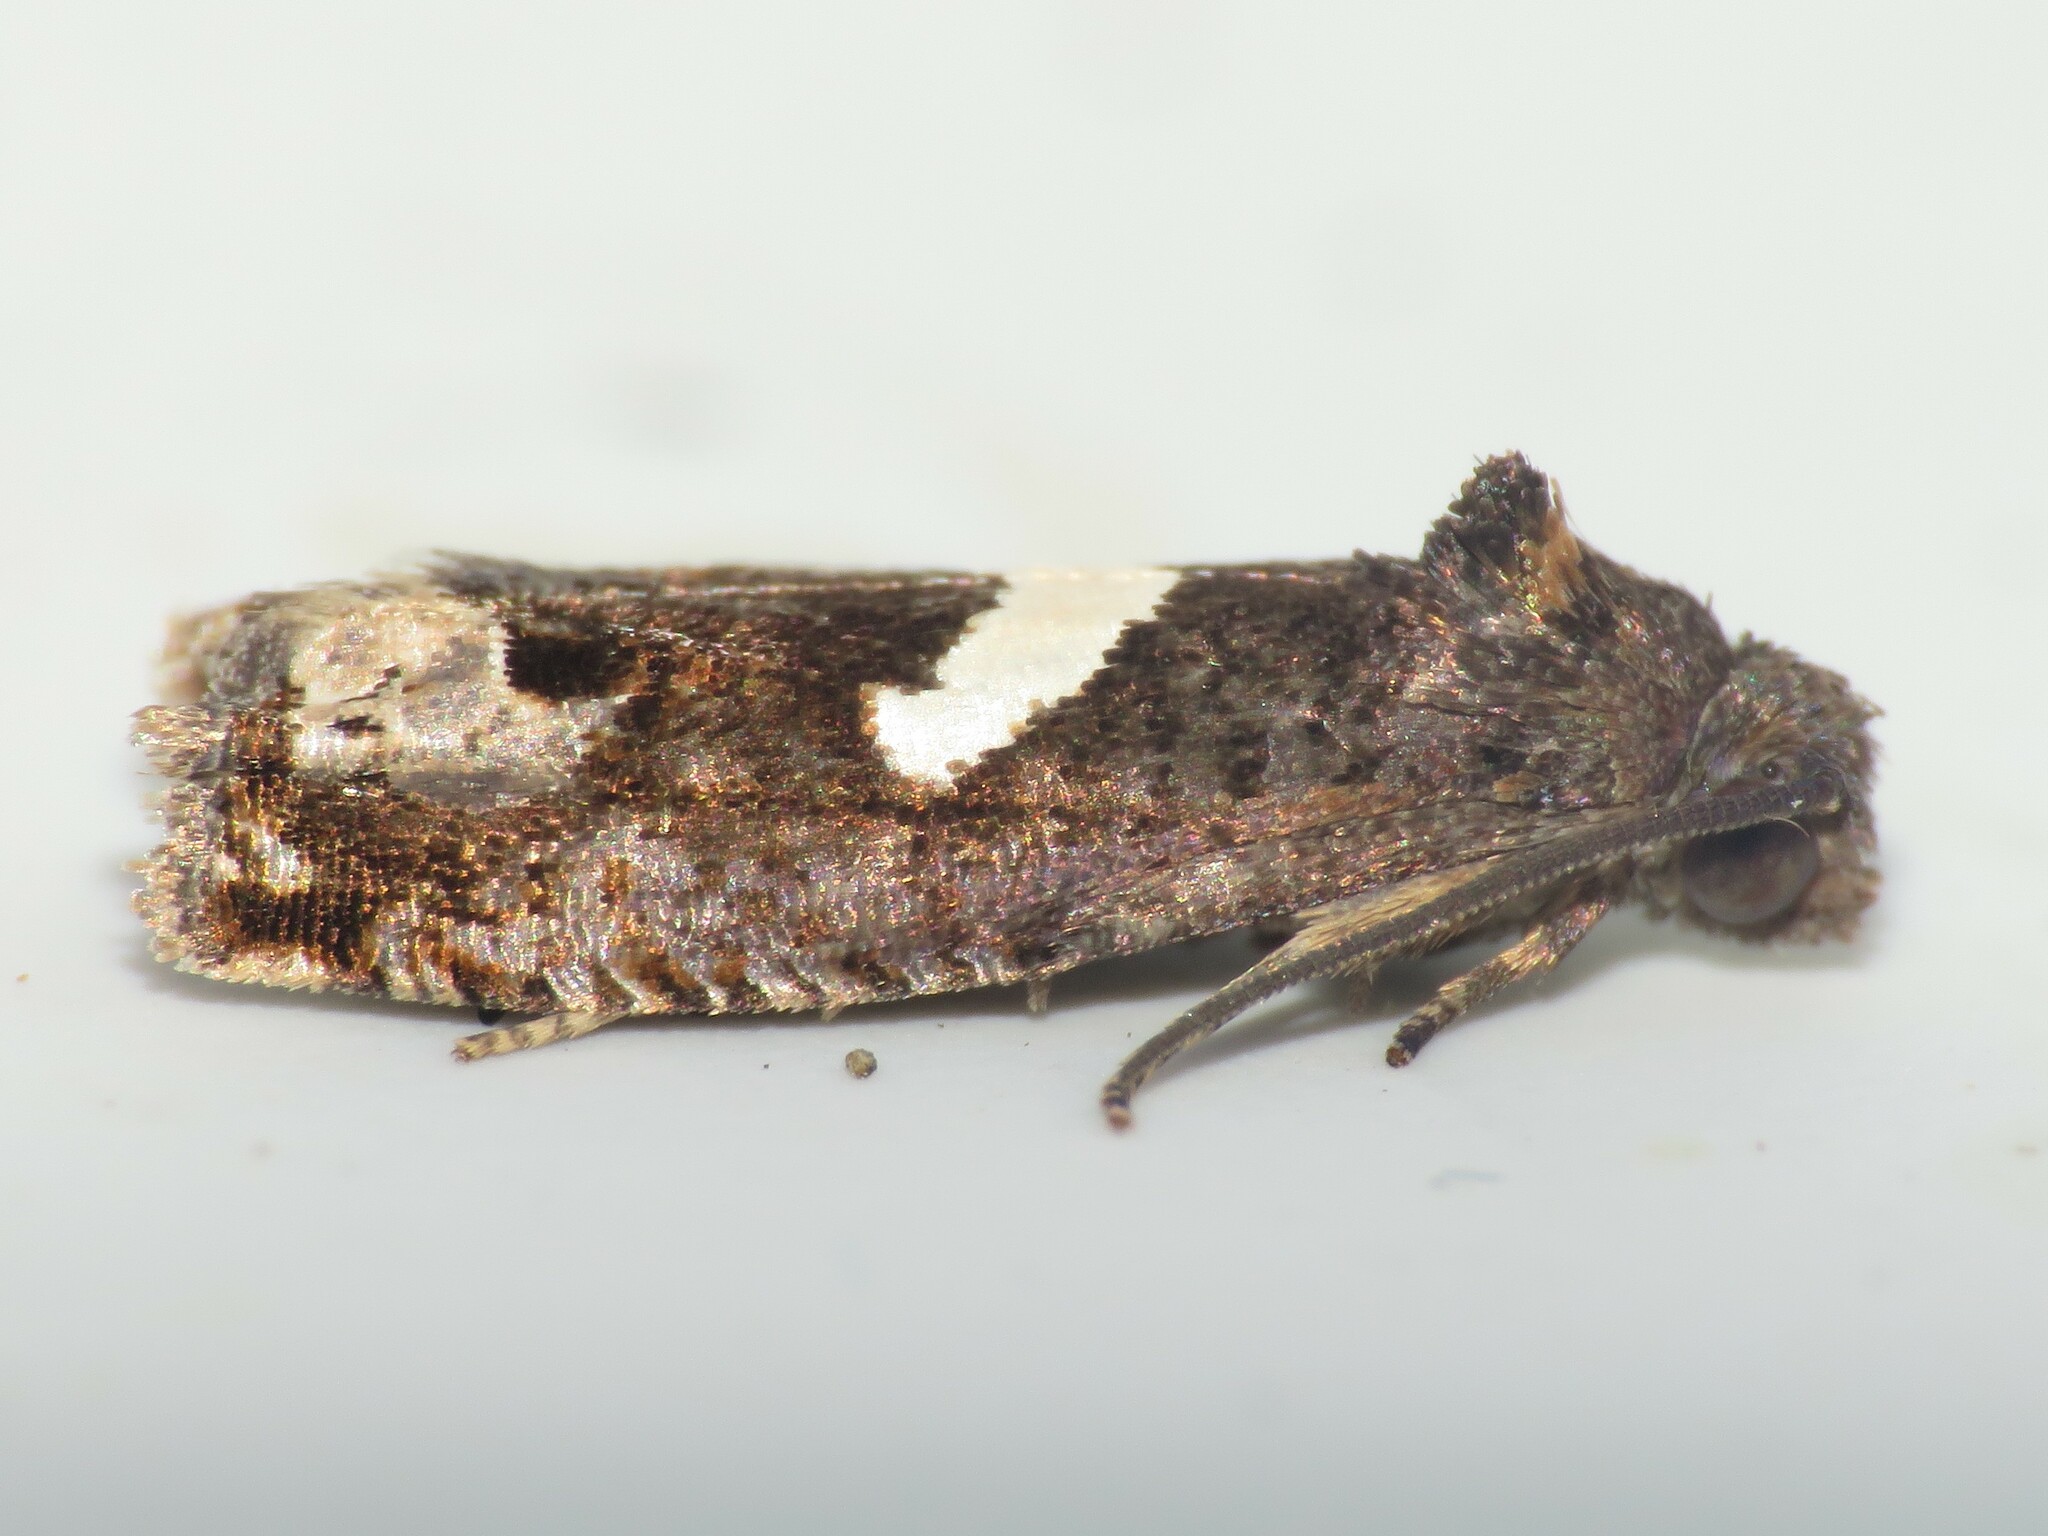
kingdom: Animalia
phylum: Arthropoda
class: Insecta
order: Lepidoptera
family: Tortricidae
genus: Epiblema
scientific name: Epiblema otiosana
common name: Bidens borer moth
